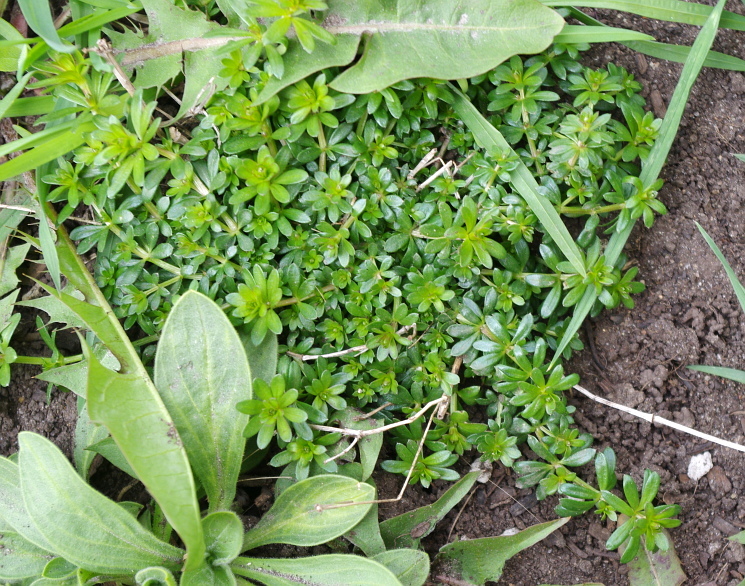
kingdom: Plantae
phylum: Tracheophyta
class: Magnoliopsida
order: Gentianales
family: Rubiaceae
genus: Galium
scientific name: Galium mollugo
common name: Hedge bedstraw
